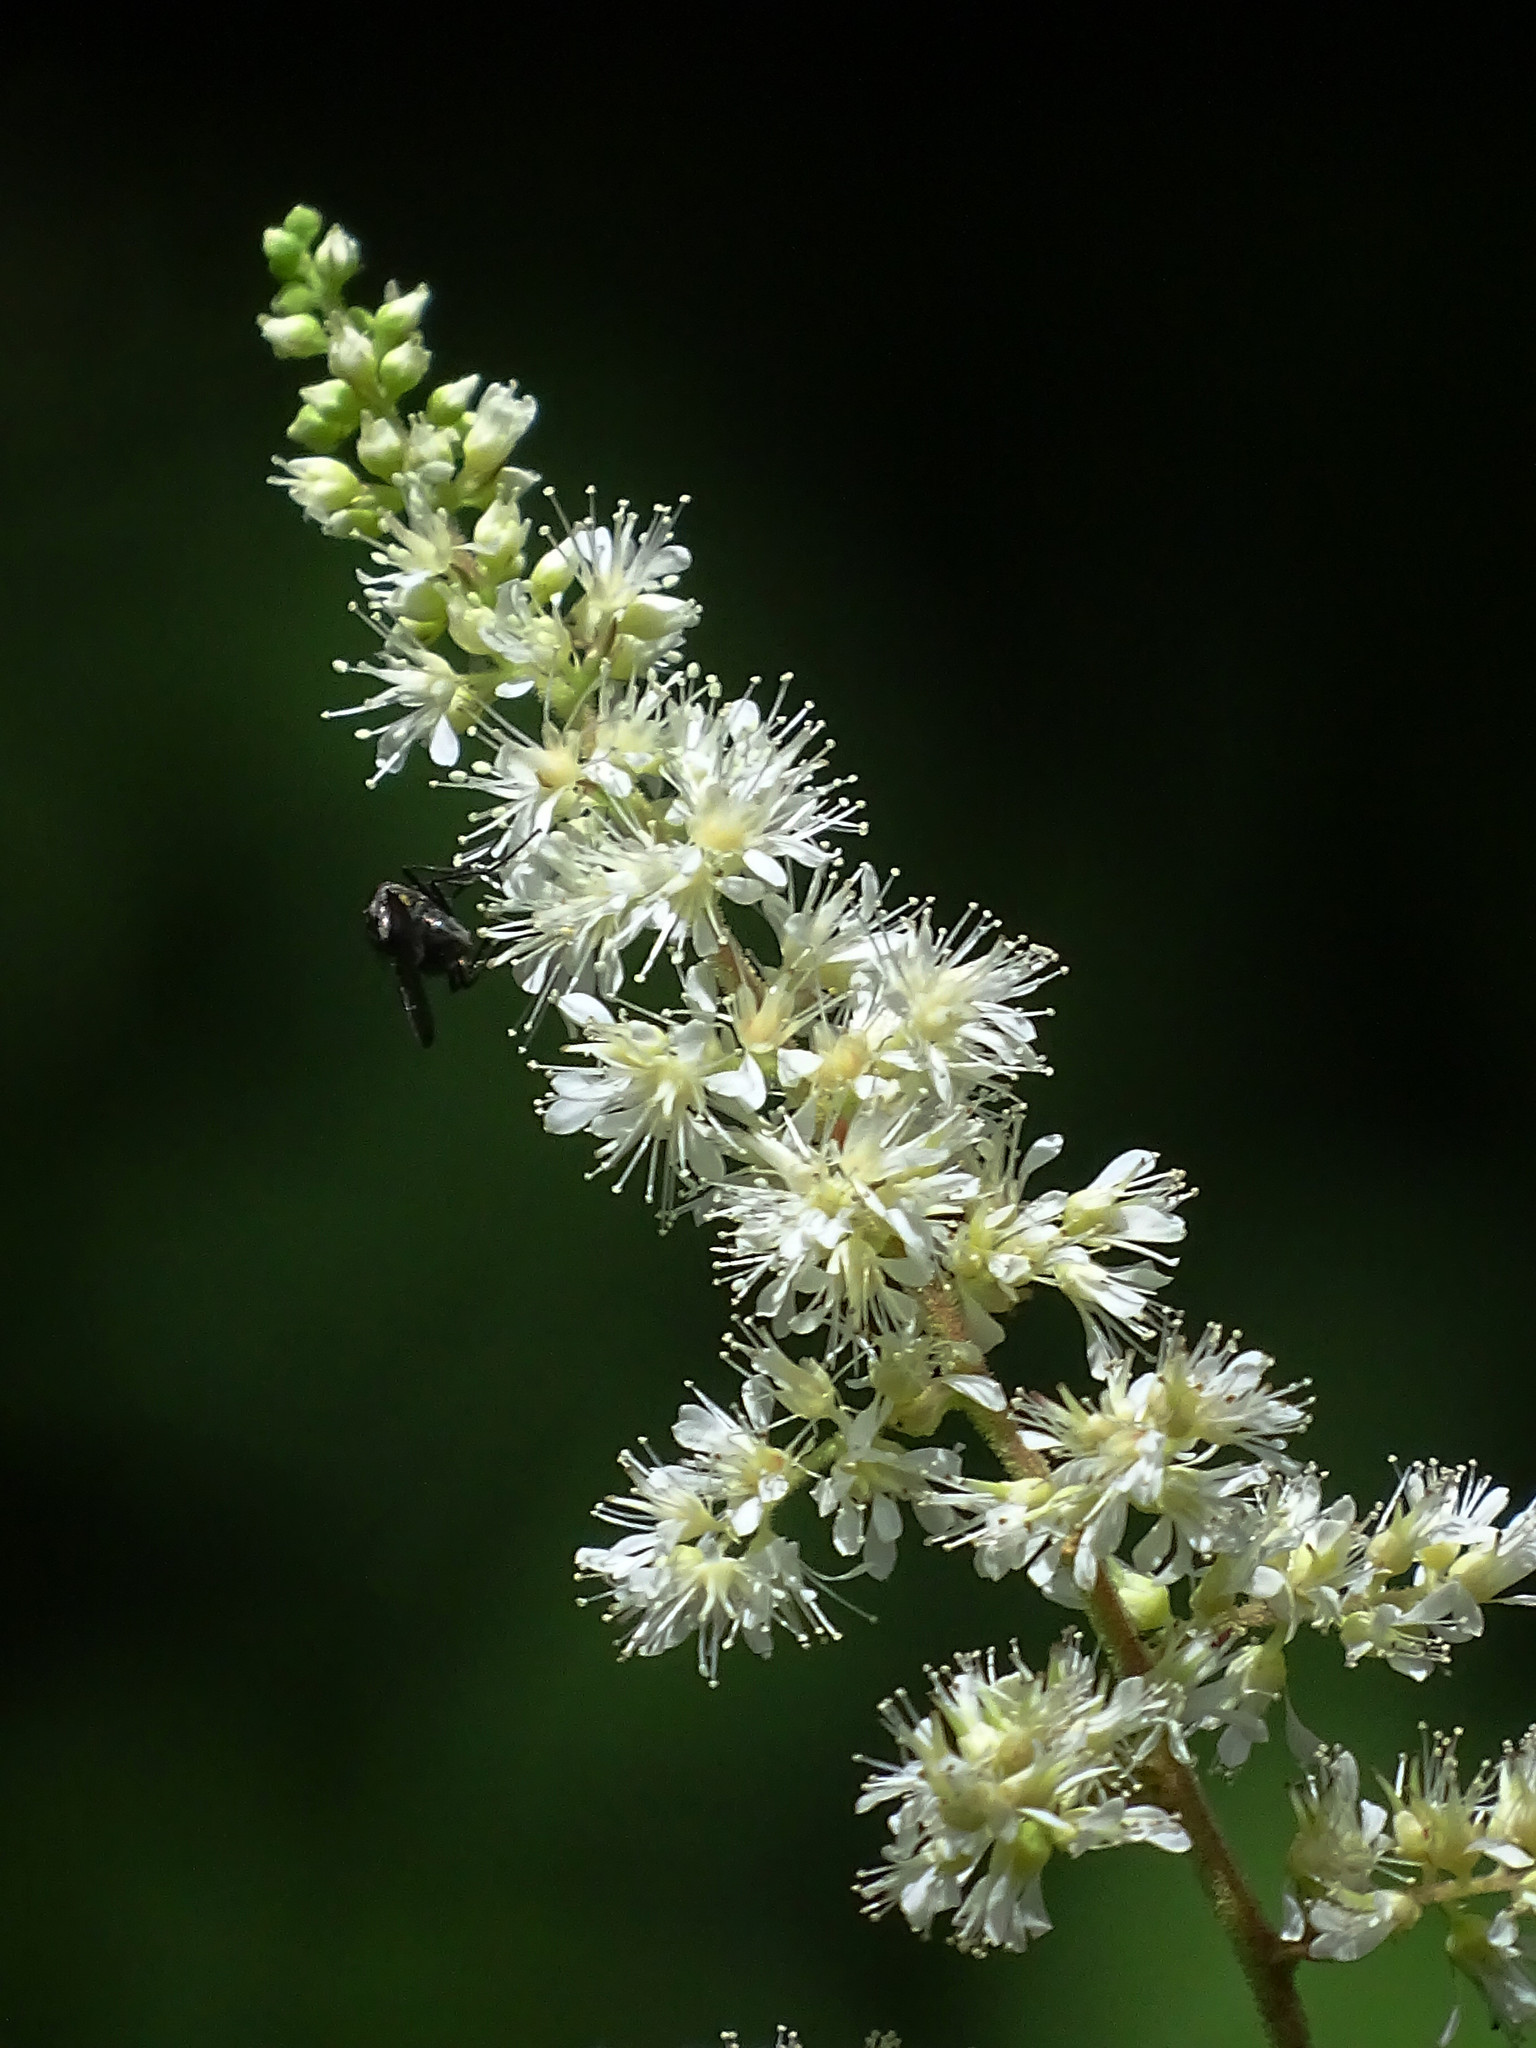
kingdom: Plantae
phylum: Tracheophyta
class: Magnoliopsida
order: Saxifragales
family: Saxifragaceae
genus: Astilbe
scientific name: Astilbe longicarpa
